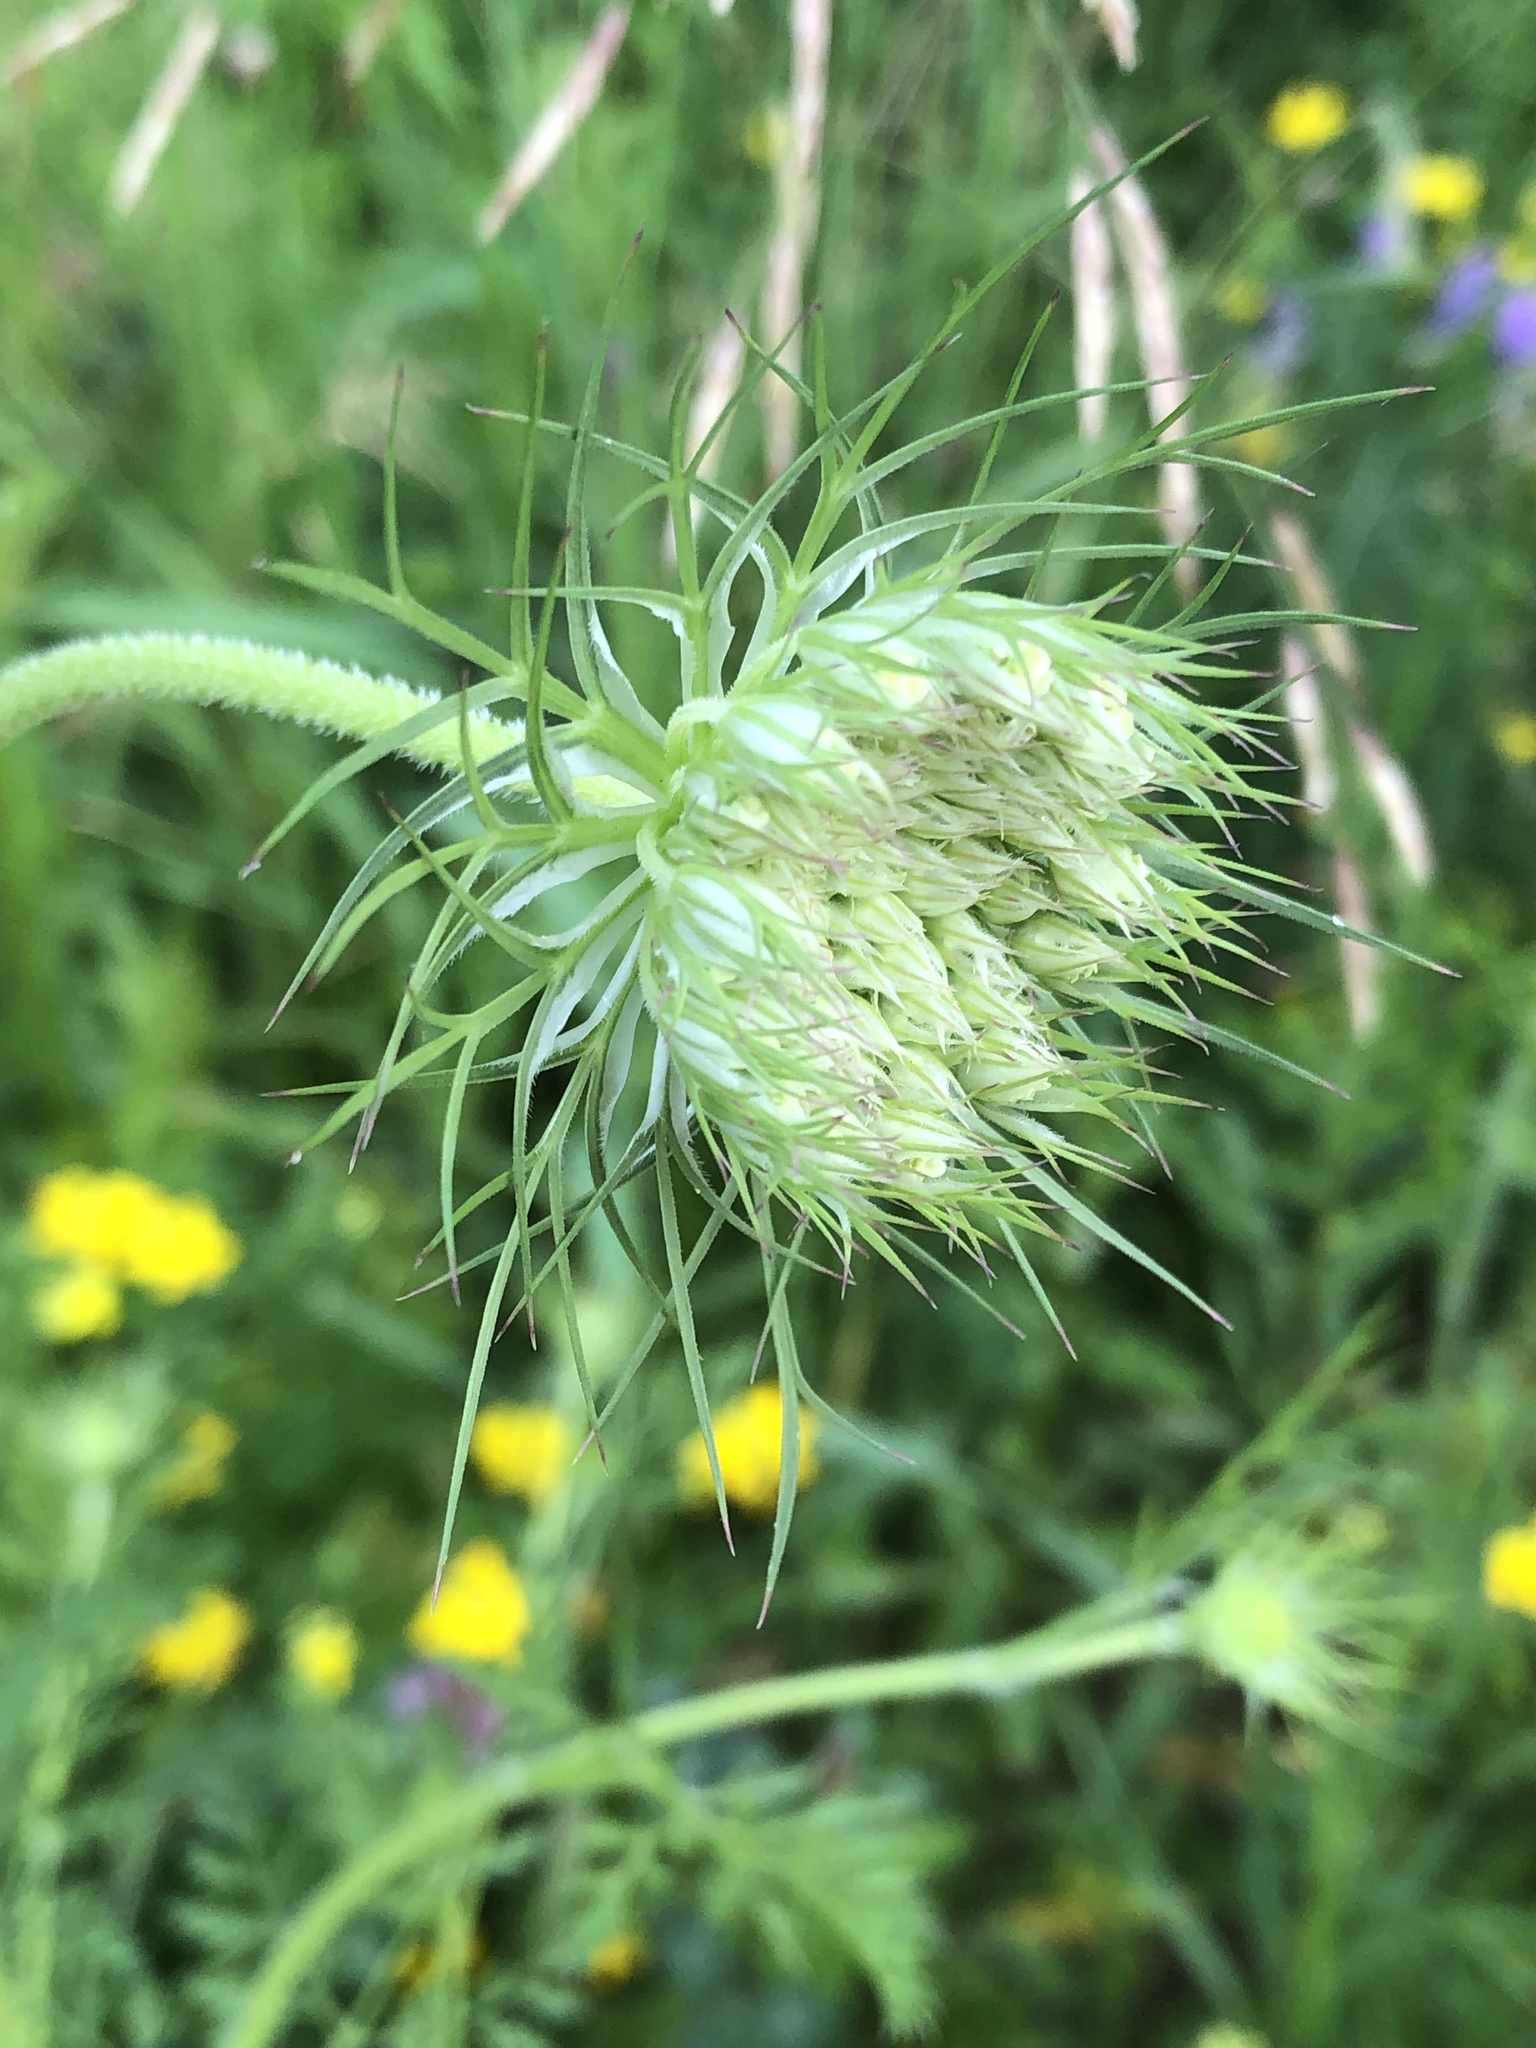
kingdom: Plantae
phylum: Tracheophyta
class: Magnoliopsida
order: Apiales
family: Apiaceae
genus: Daucus
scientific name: Daucus carota
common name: Wild carrot
